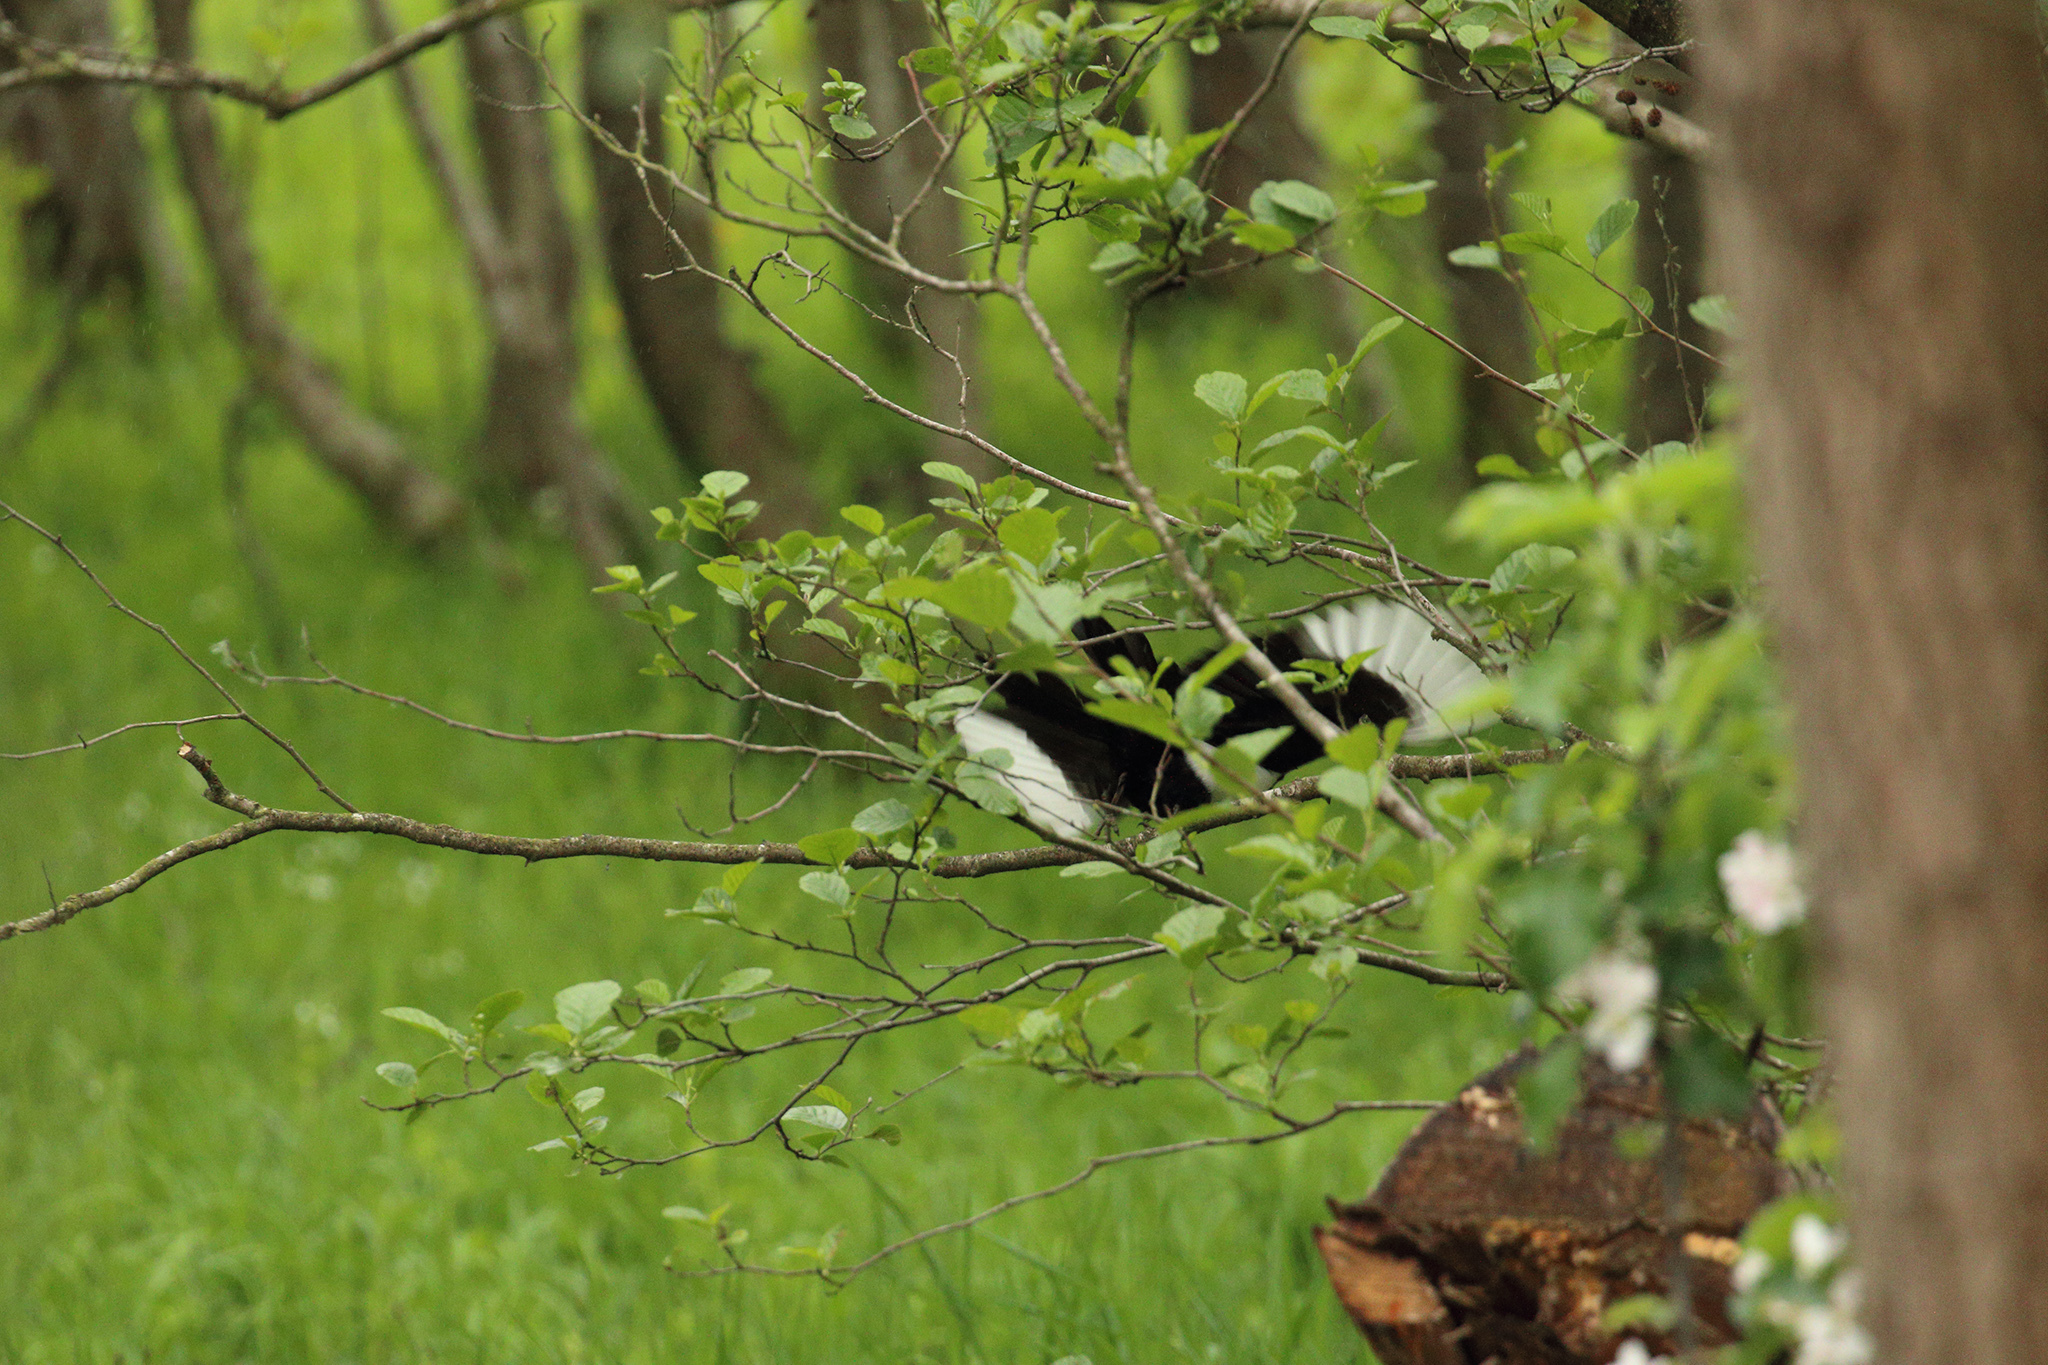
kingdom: Animalia
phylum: Chordata
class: Aves
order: Passeriformes
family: Corvidae
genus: Pica
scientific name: Pica pica
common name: Eurasian magpie
